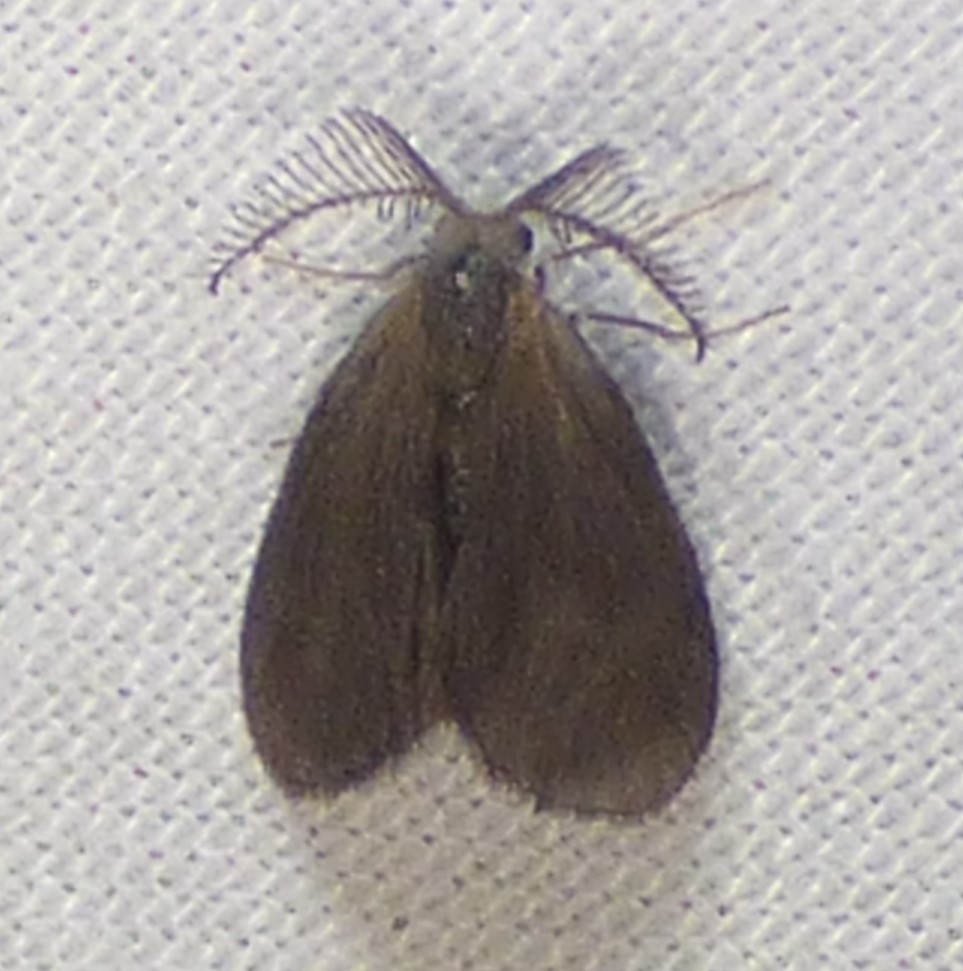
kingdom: Animalia
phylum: Arthropoda
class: Insecta
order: Lepidoptera
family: Psychidae
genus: Cryptothelea
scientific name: Cryptothelea gloverii
